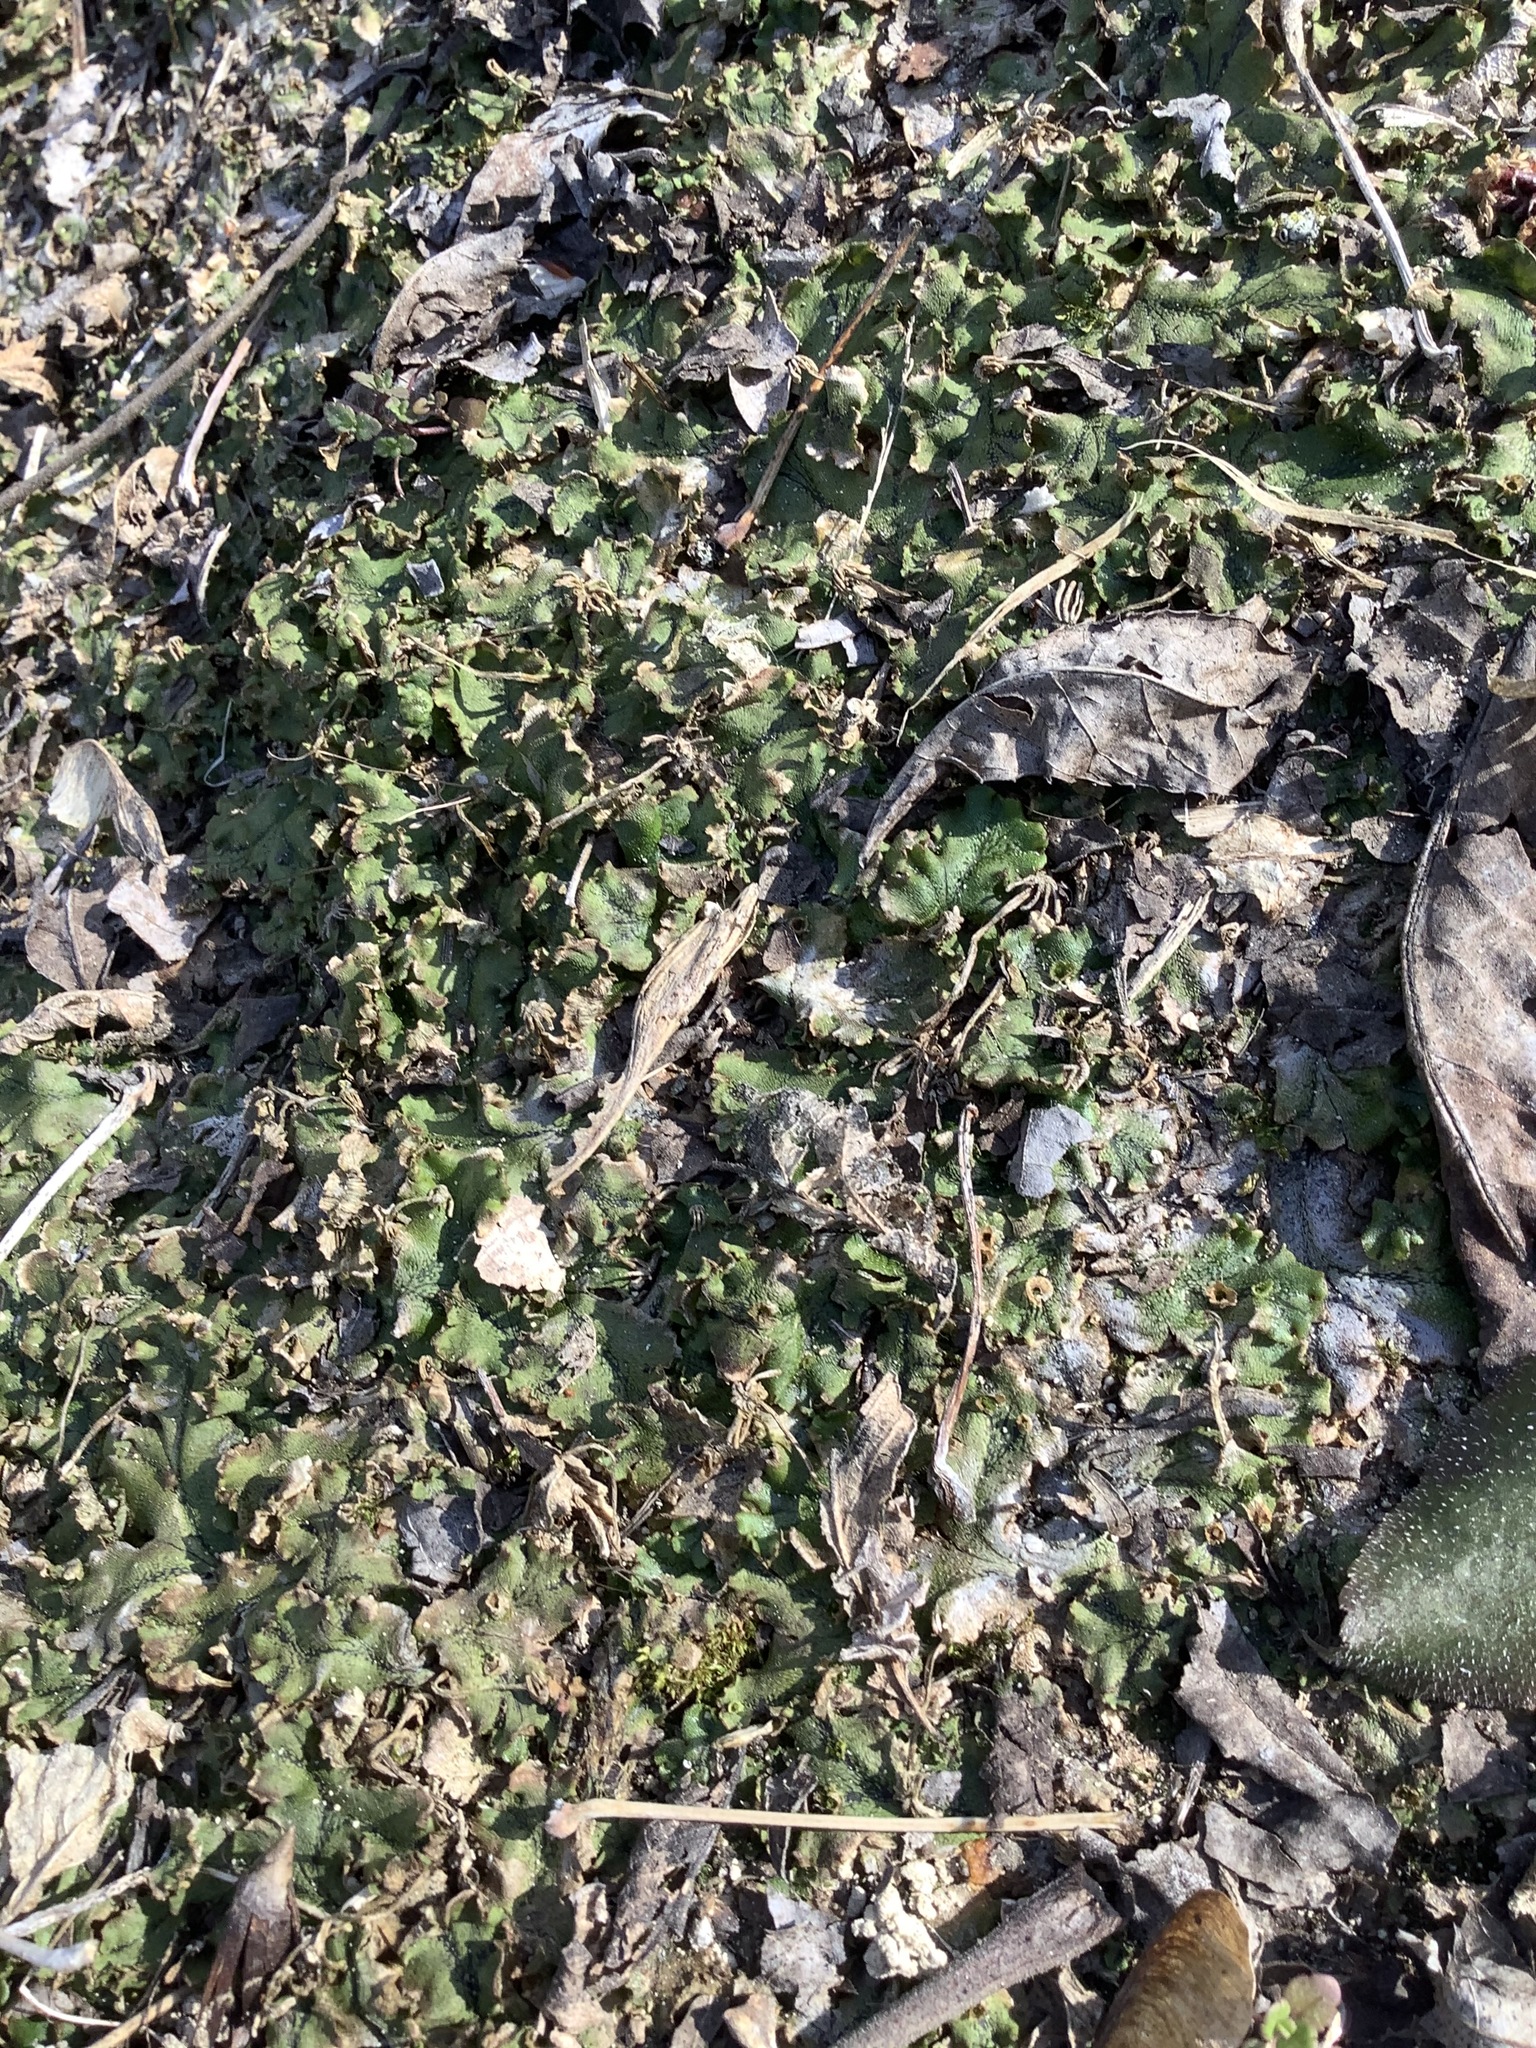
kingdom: Plantae
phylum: Marchantiophyta
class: Marchantiopsida
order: Marchantiales
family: Marchantiaceae
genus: Marchantia
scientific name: Marchantia polymorpha
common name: Common liverwort
